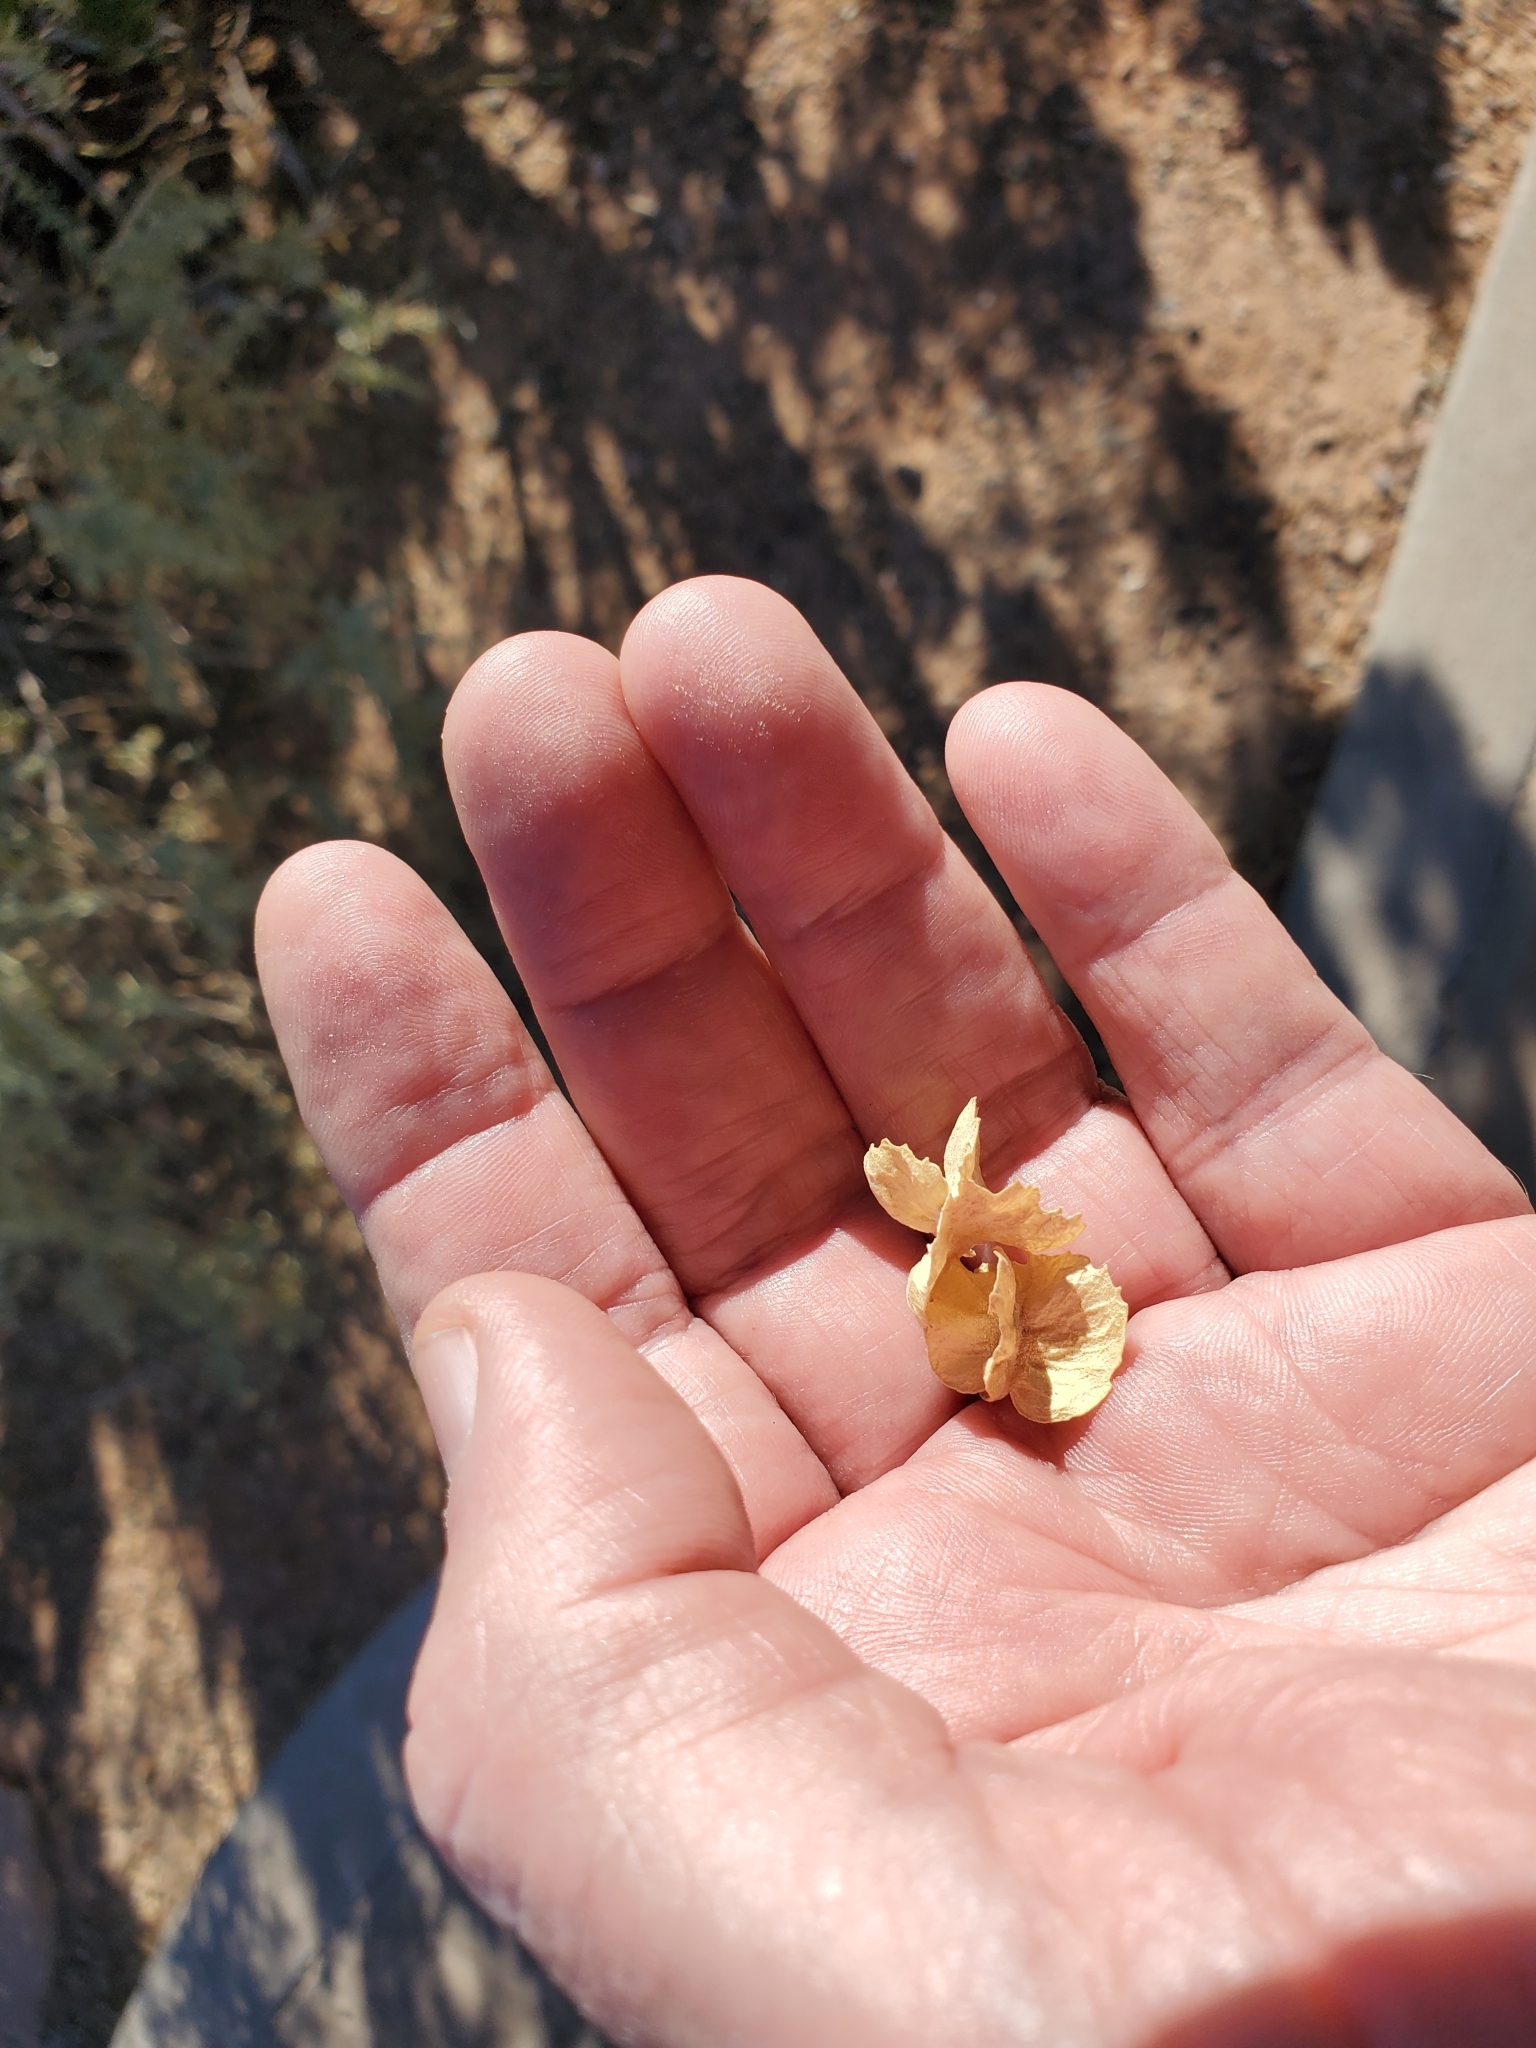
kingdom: Plantae
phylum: Tracheophyta
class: Magnoliopsida
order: Caryophyllales
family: Amaranthaceae
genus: Atriplex
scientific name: Atriplex canescens
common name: Four-wing saltbush
